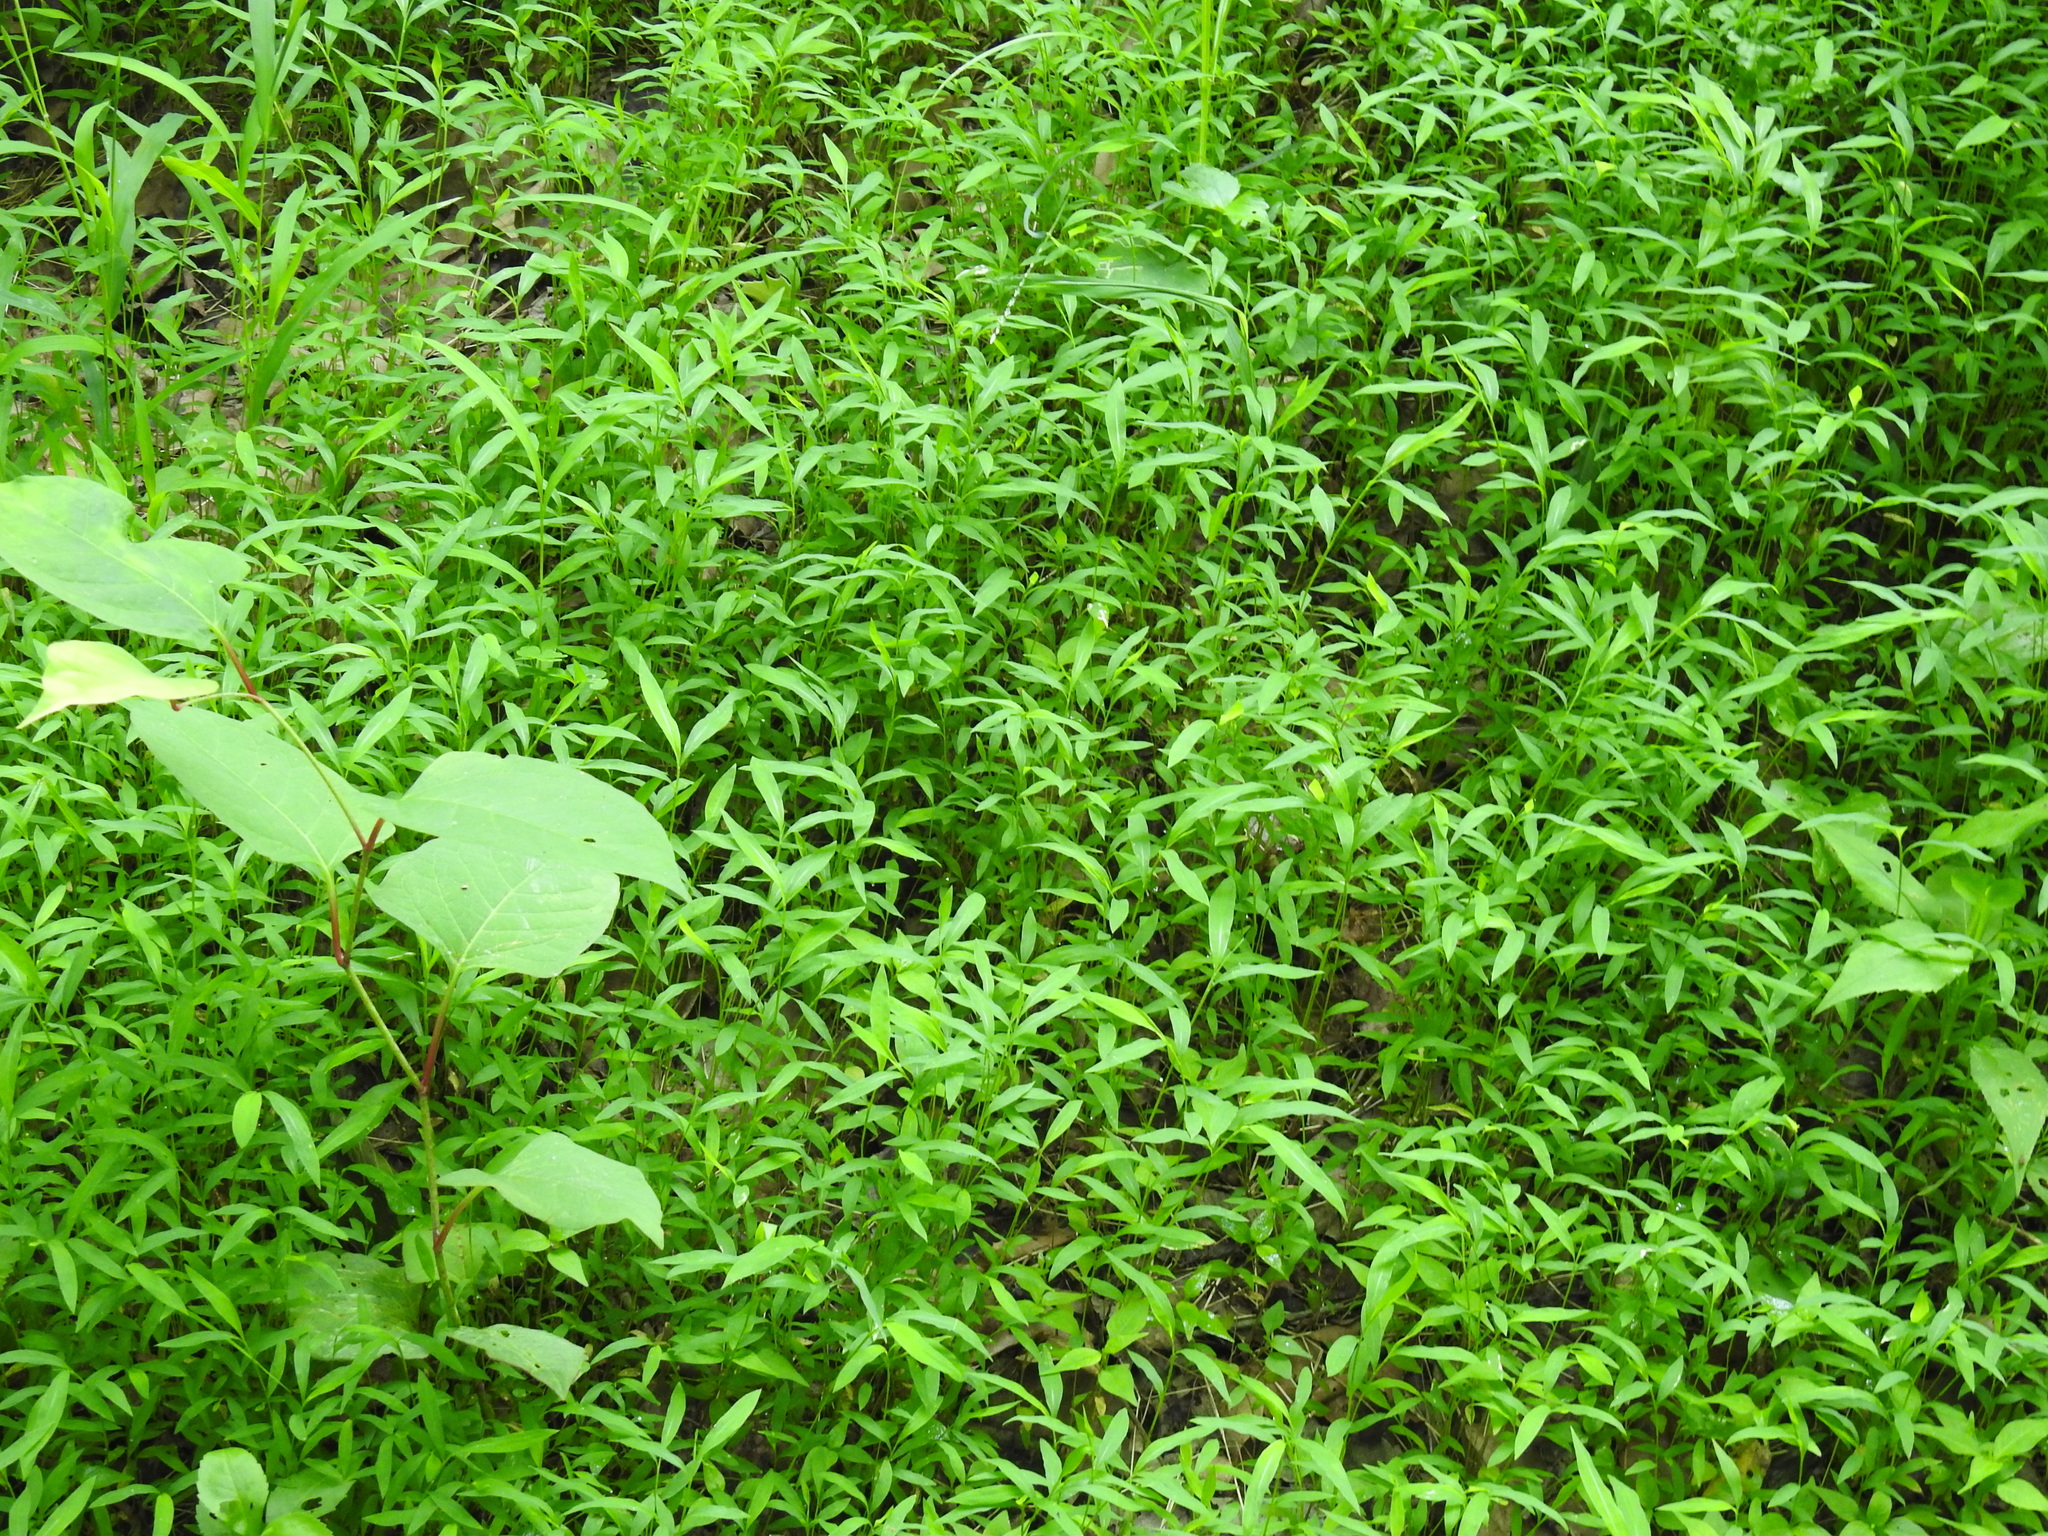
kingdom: Plantae
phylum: Tracheophyta
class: Liliopsida
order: Poales
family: Poaceae
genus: Microstegium
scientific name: Microstegium vimineum
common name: Japanese stiltgrass
